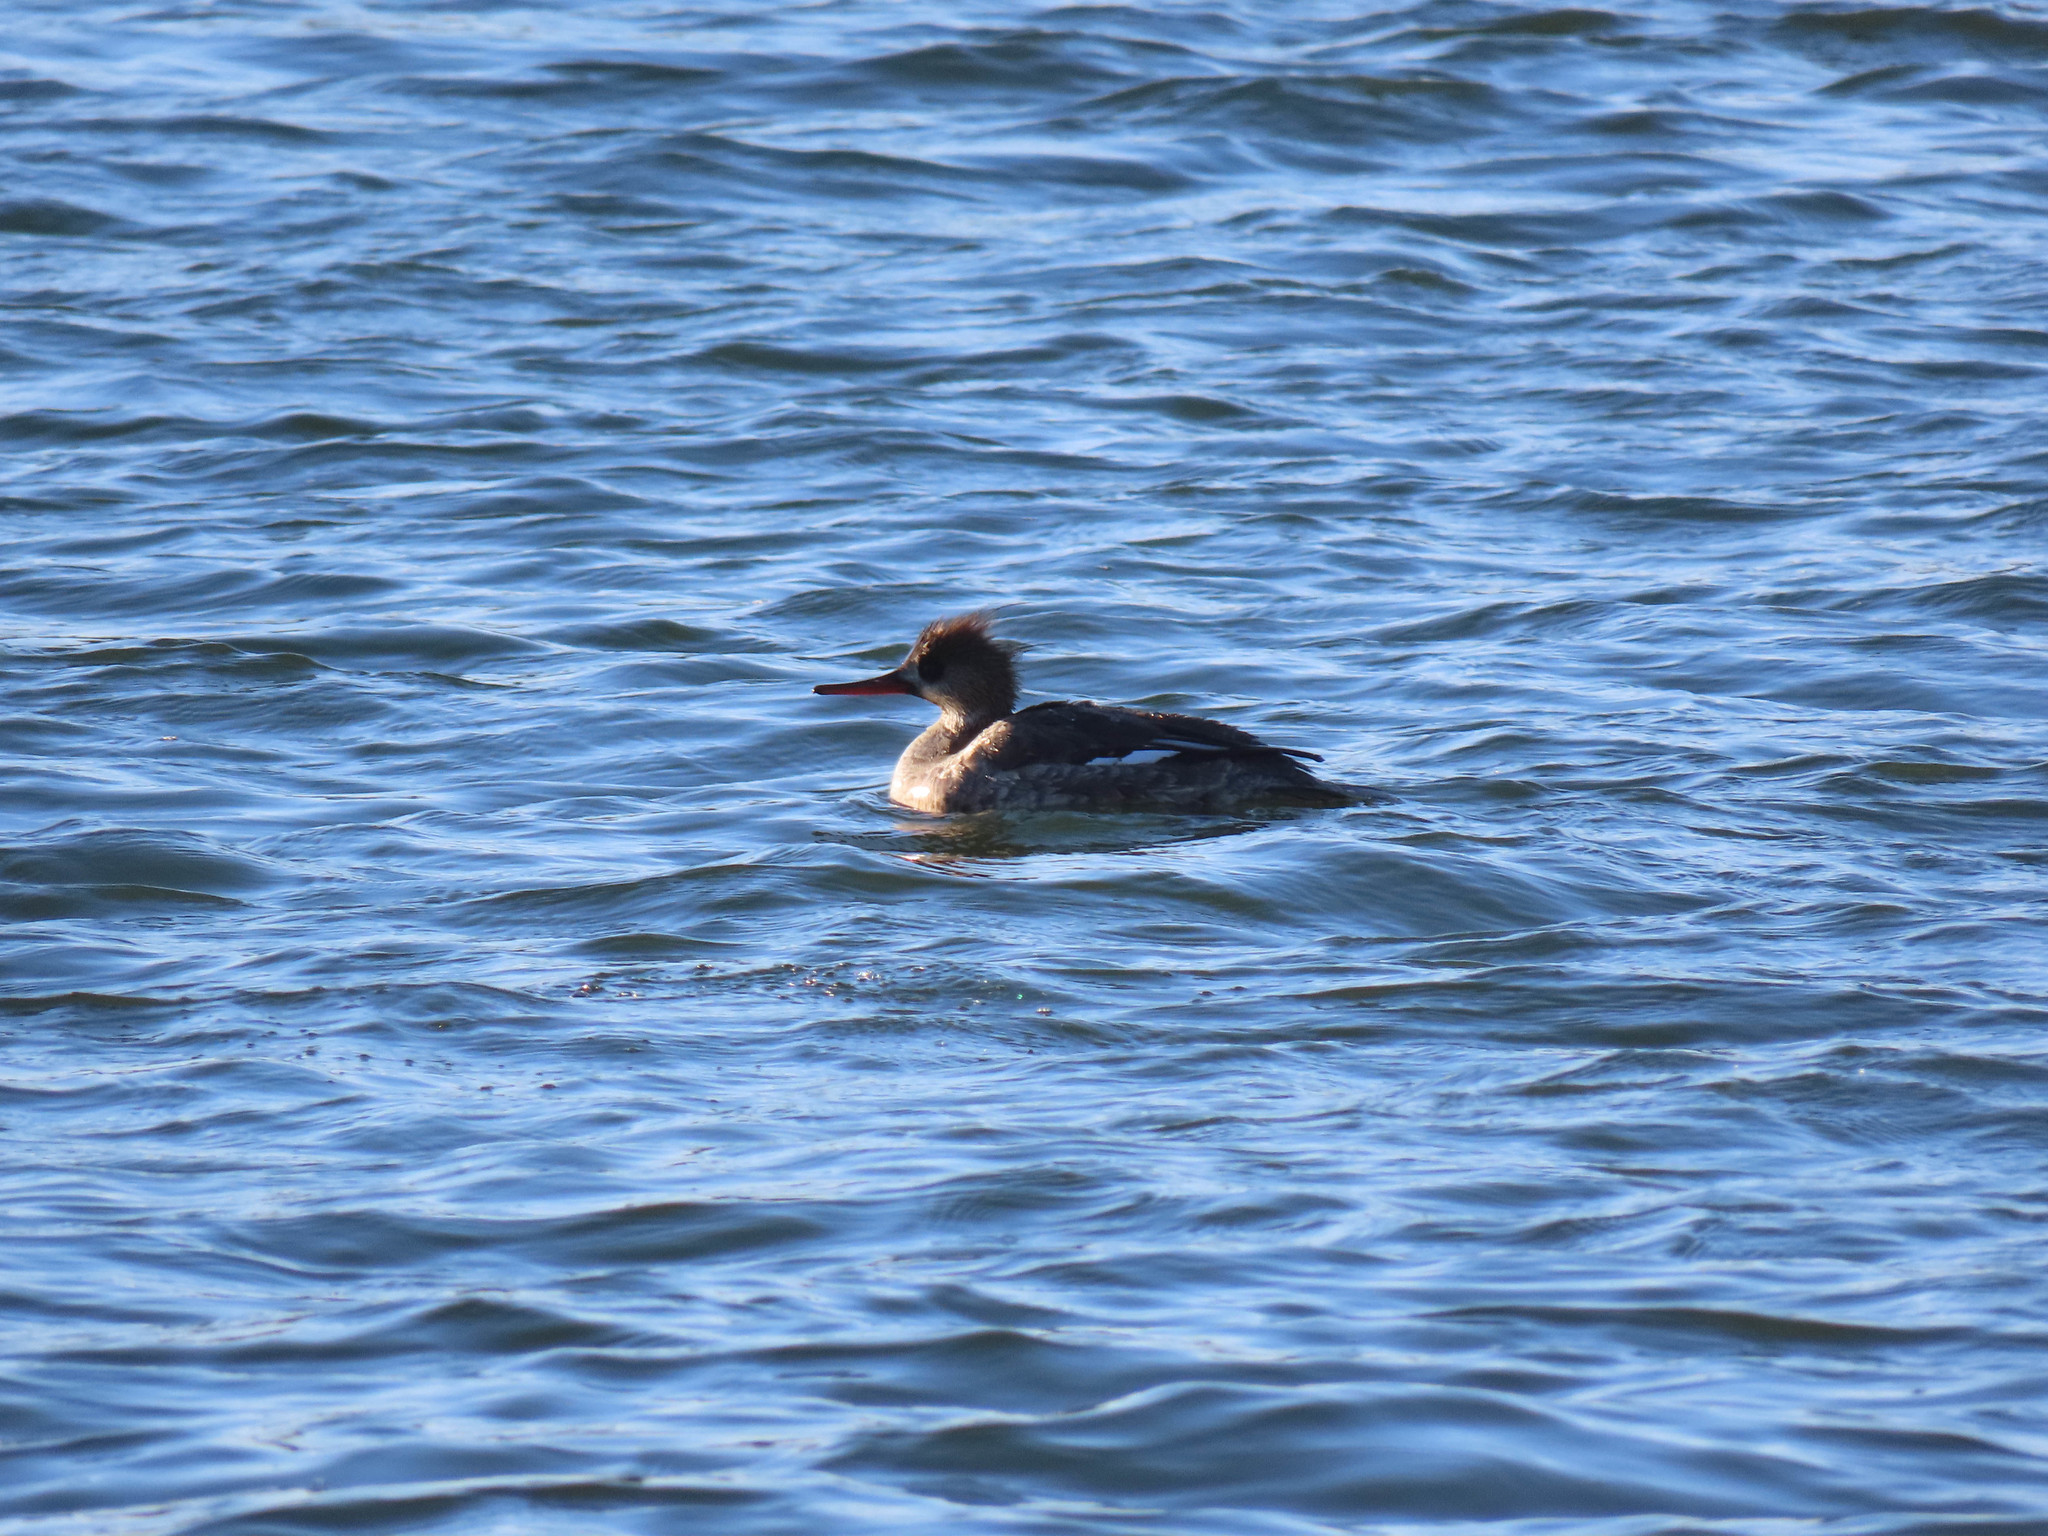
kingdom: Animalia
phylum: Chordata
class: Aves
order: Anseriformes
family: Anatidae
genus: Mergus
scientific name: Mergus serrator
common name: Red-breasted merganser
